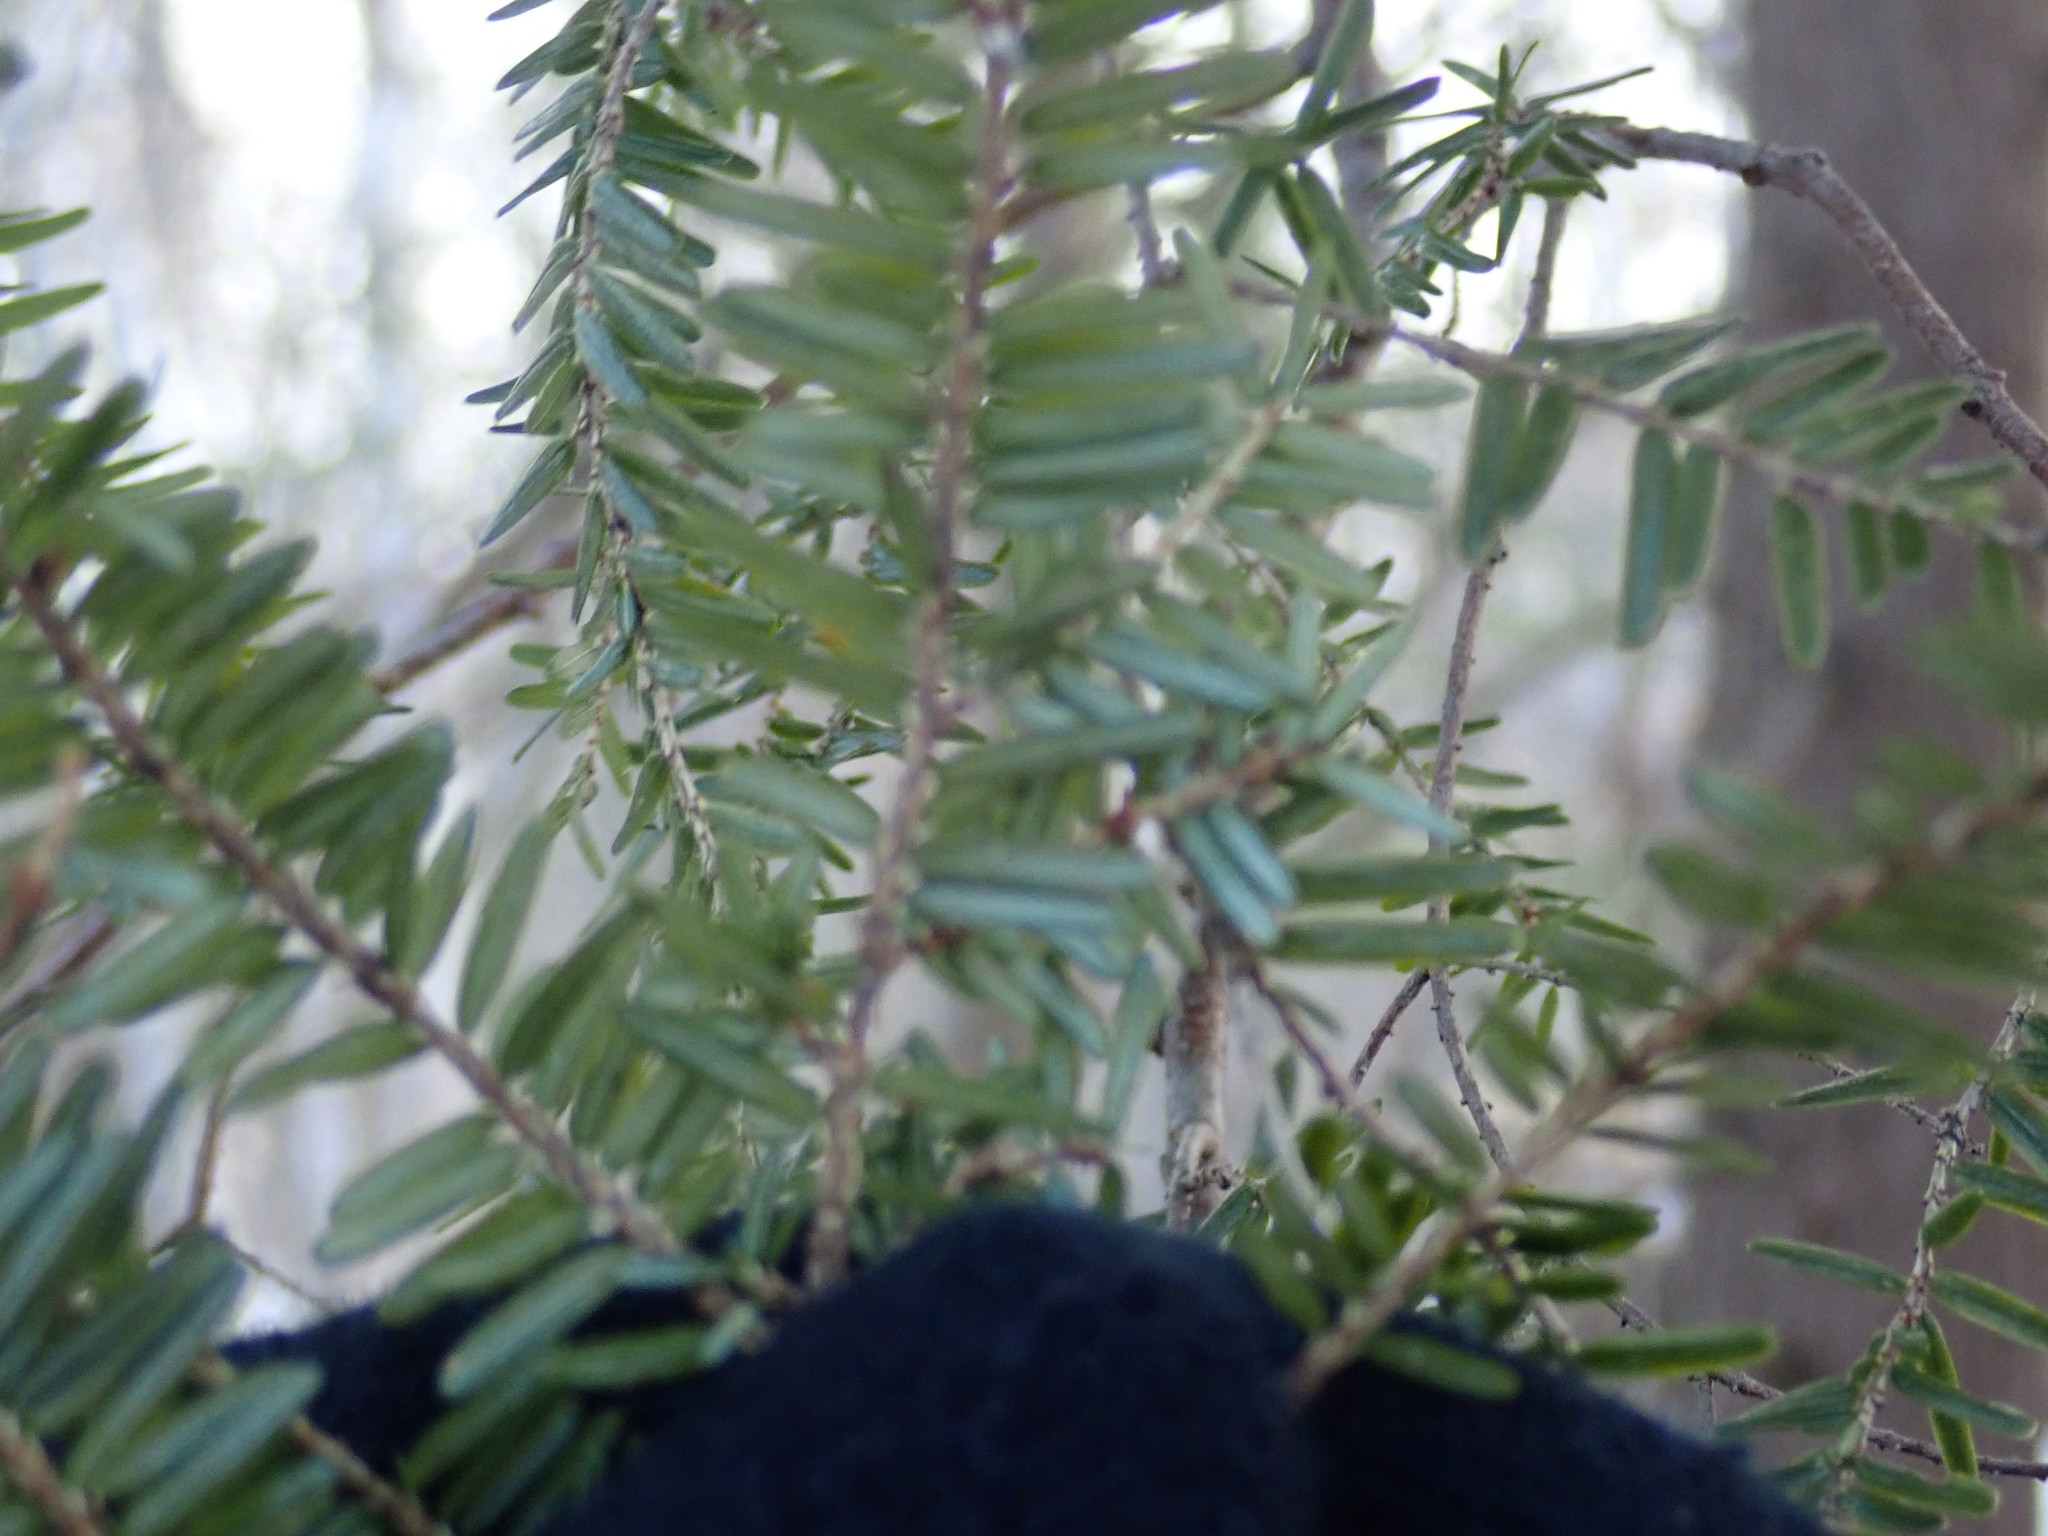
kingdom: Plantae
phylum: Tracheophyta
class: Pinopsida
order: Pinales
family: Pinaceae
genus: Tsuga
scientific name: Tsuga canadensis
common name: Eastern hemlock
